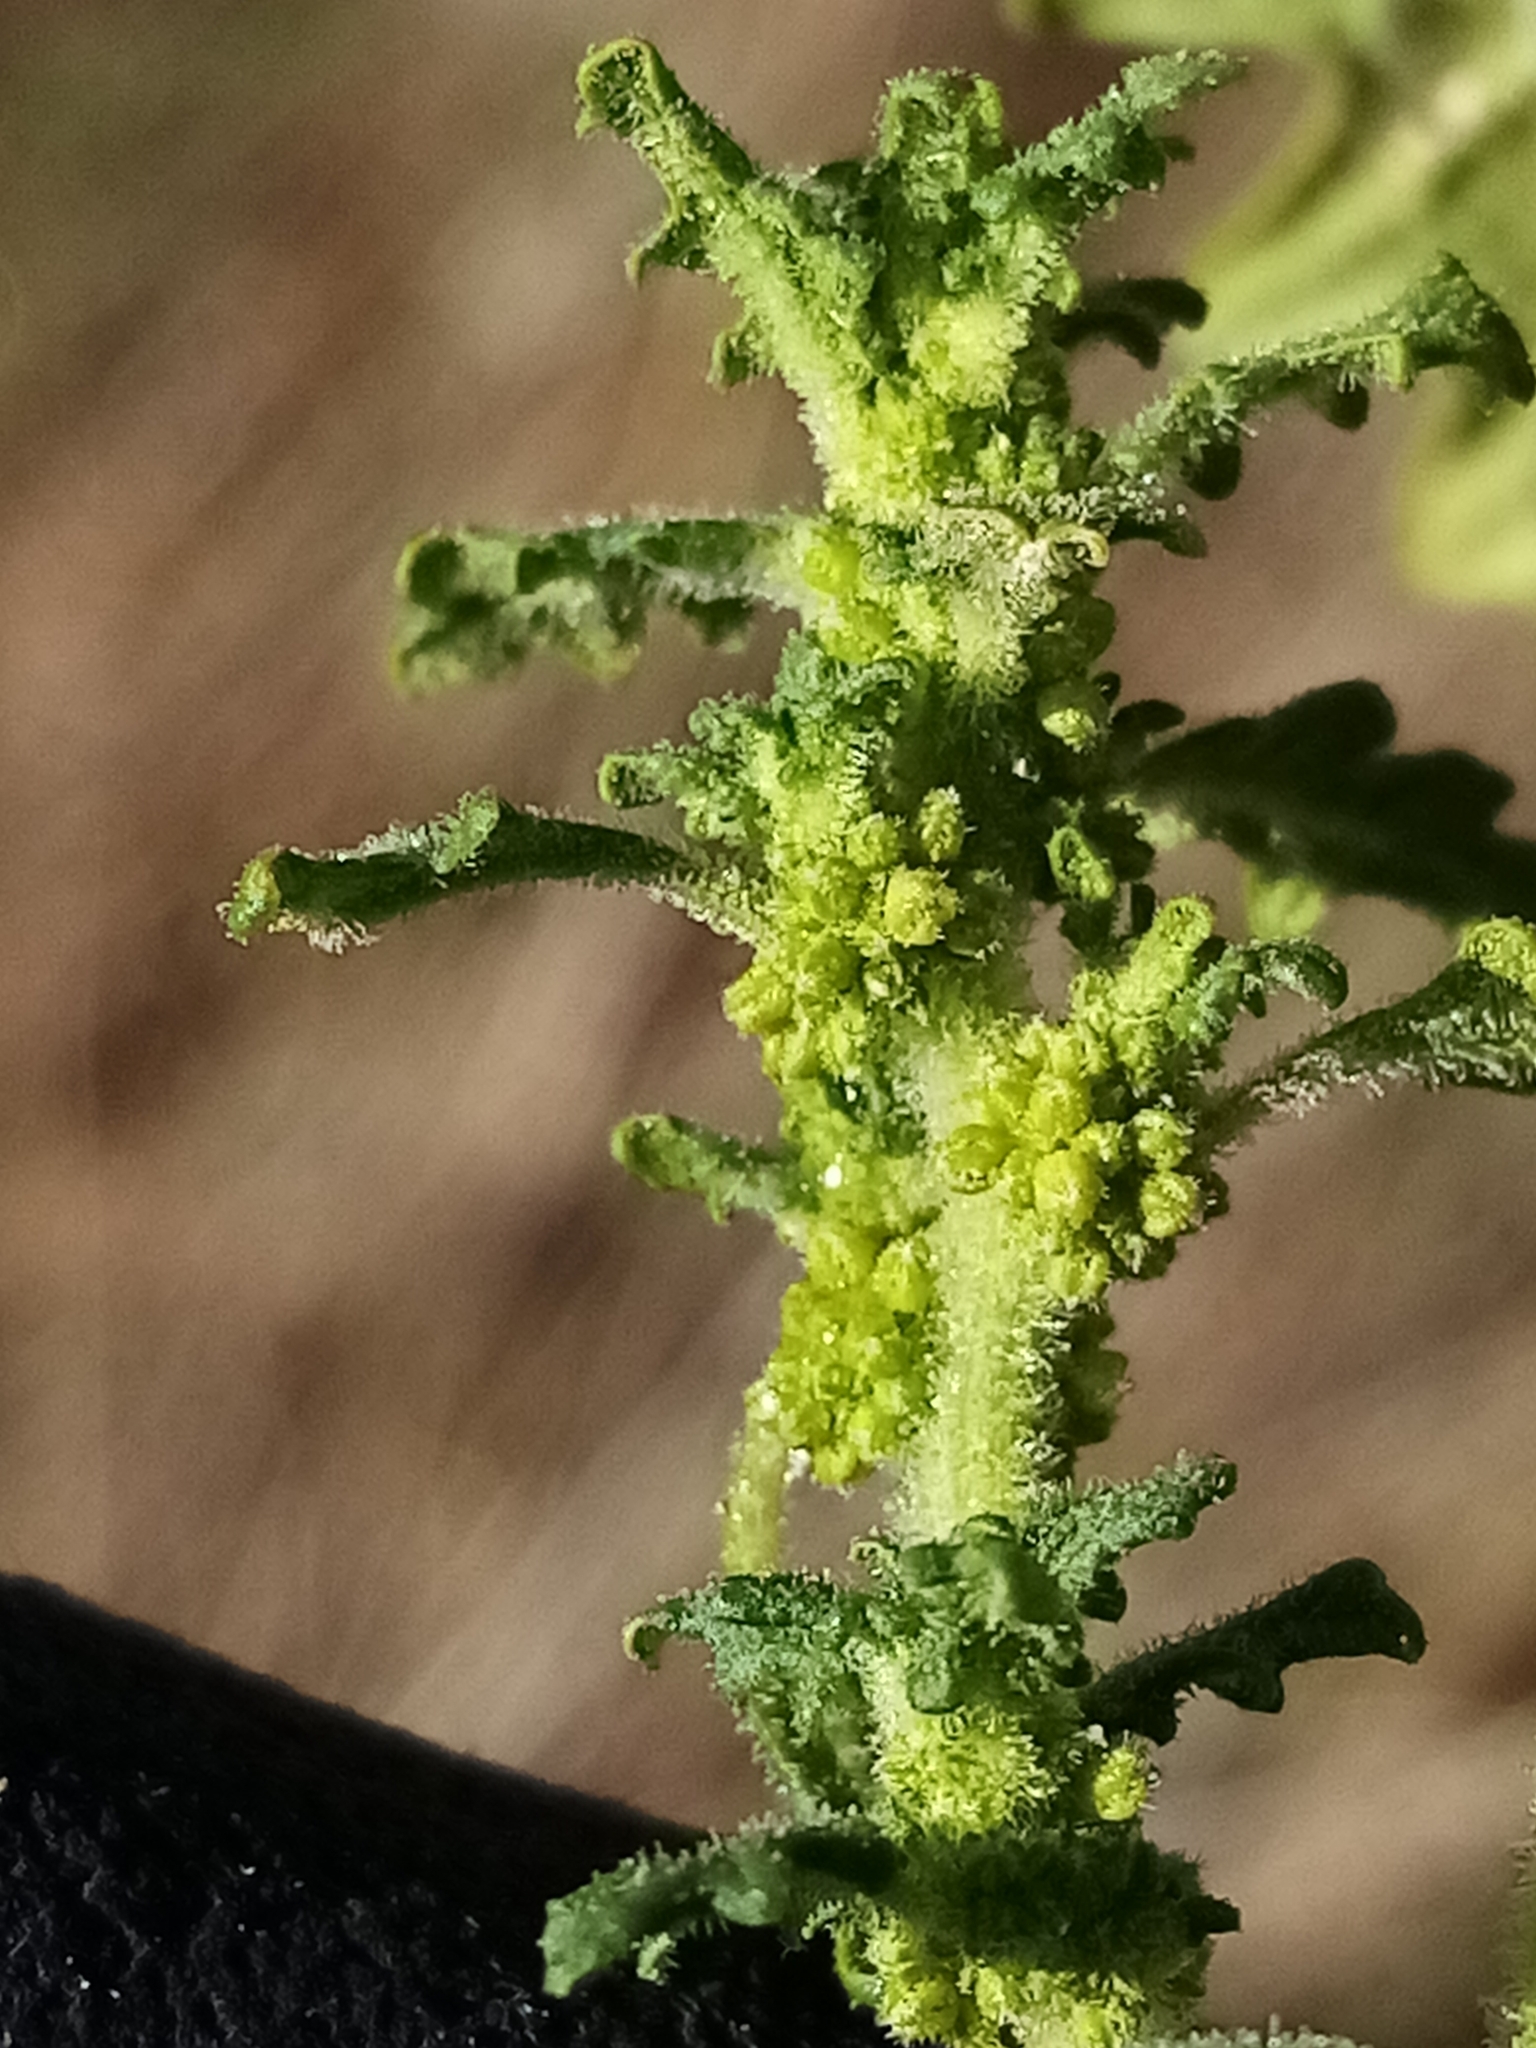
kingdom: Plantae
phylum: Tracheophyta
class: Magnoliopsida
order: Caryophyllales
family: Amaranthaceae
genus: Dysphania
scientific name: Dysphania pumilio
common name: Clammy goosefoot
